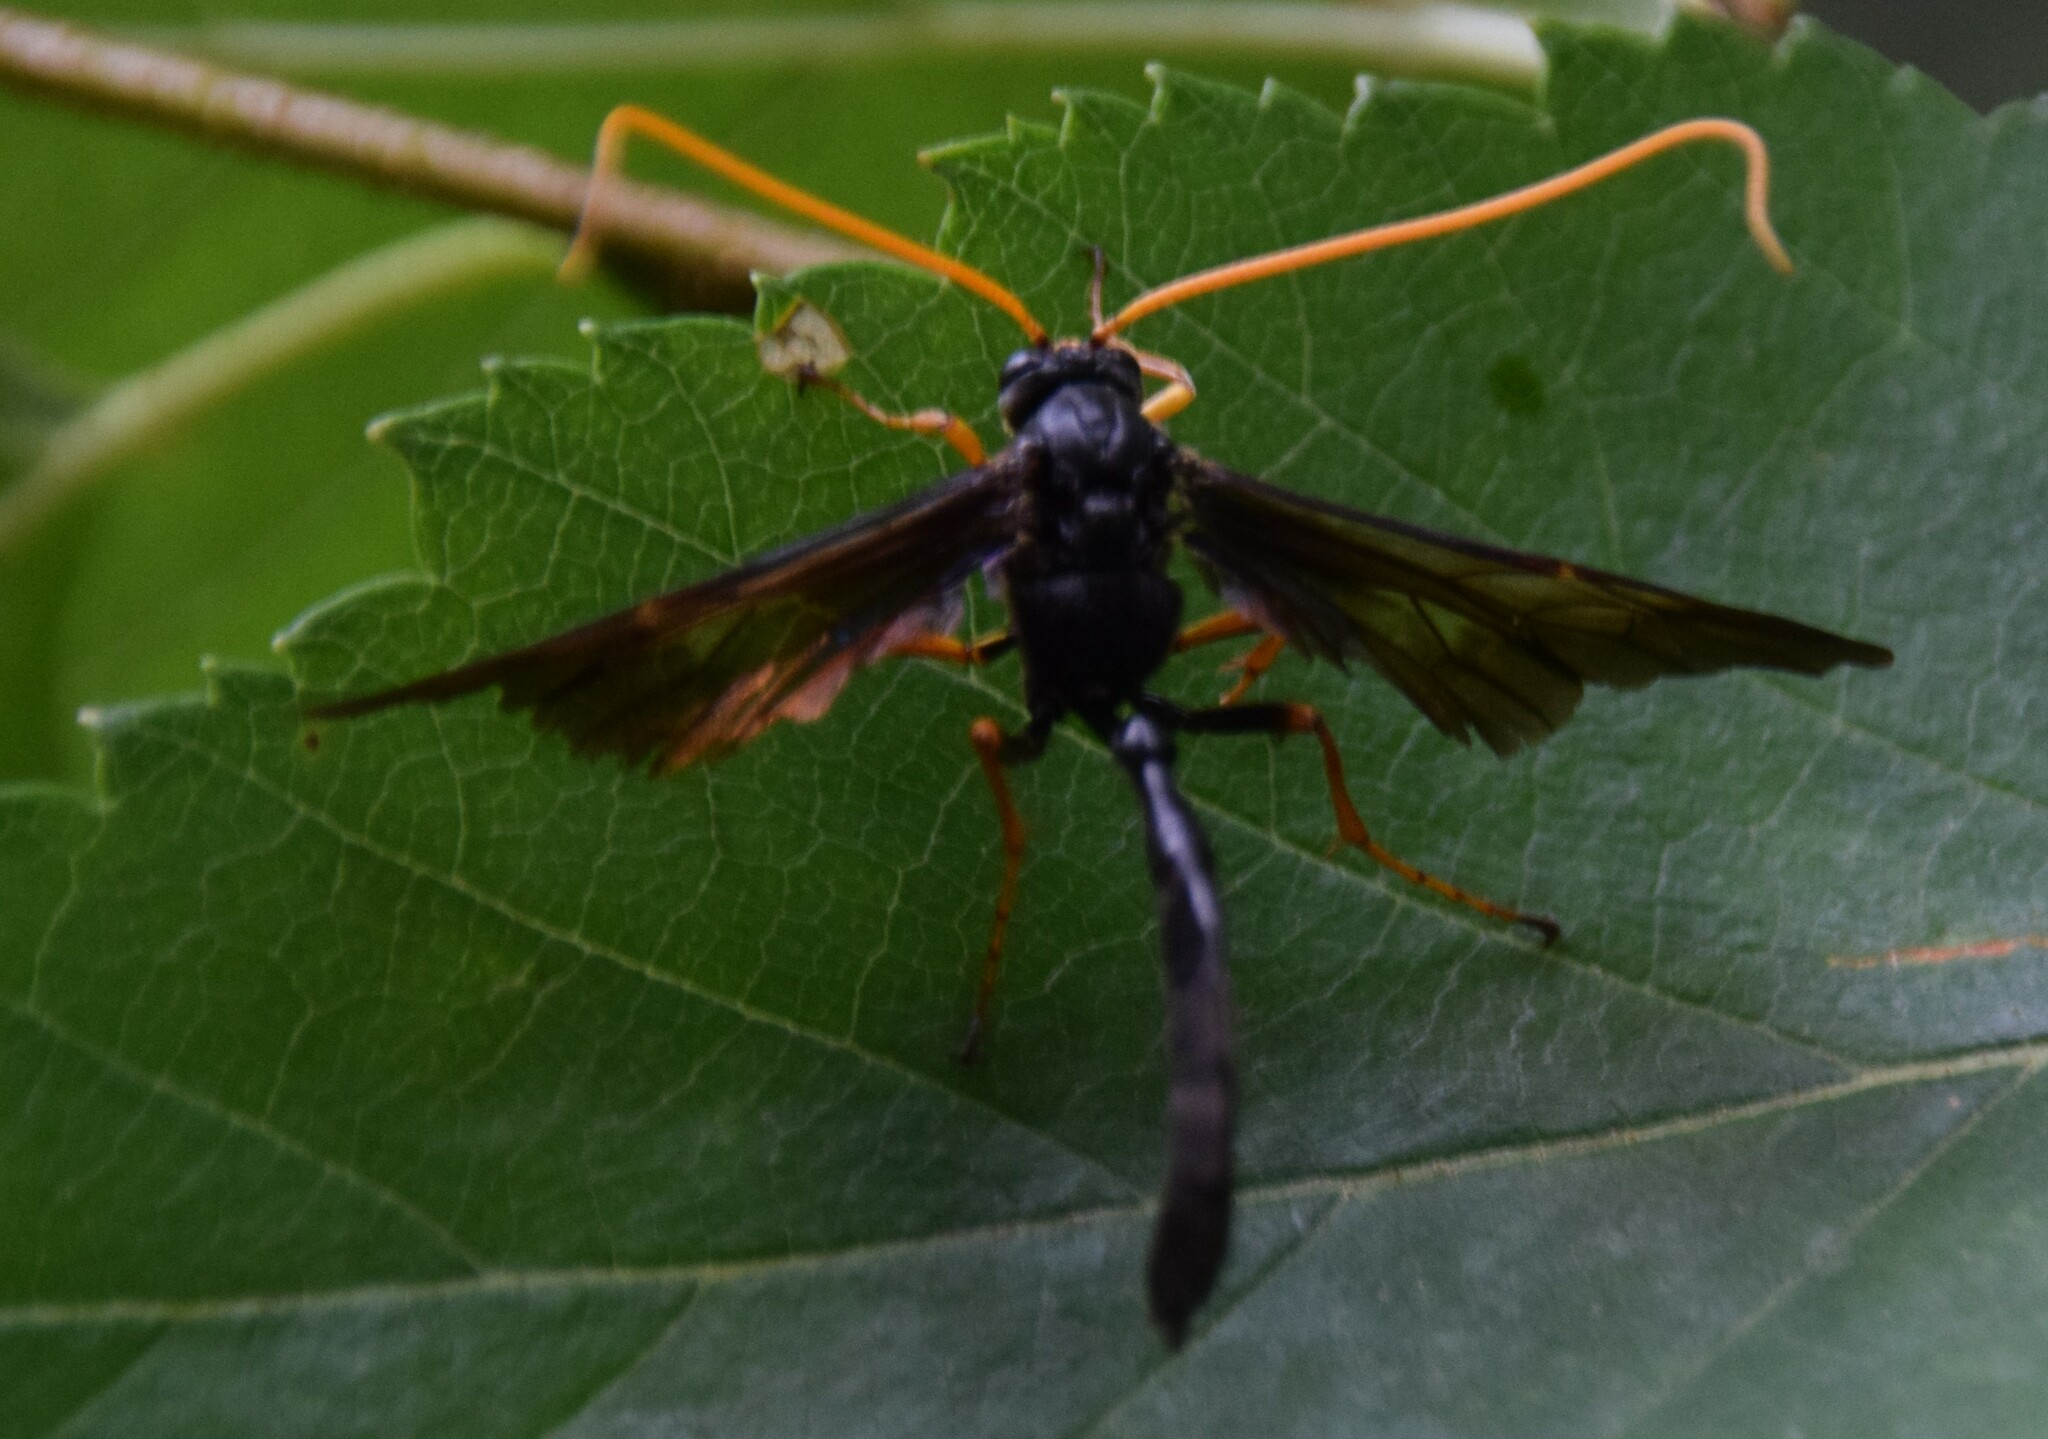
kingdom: Animalia
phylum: Arthropoda
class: Insecta
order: Hymenoptera
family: Ichneumonidae
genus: Thyreodon
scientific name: Thyreodon atricolor
